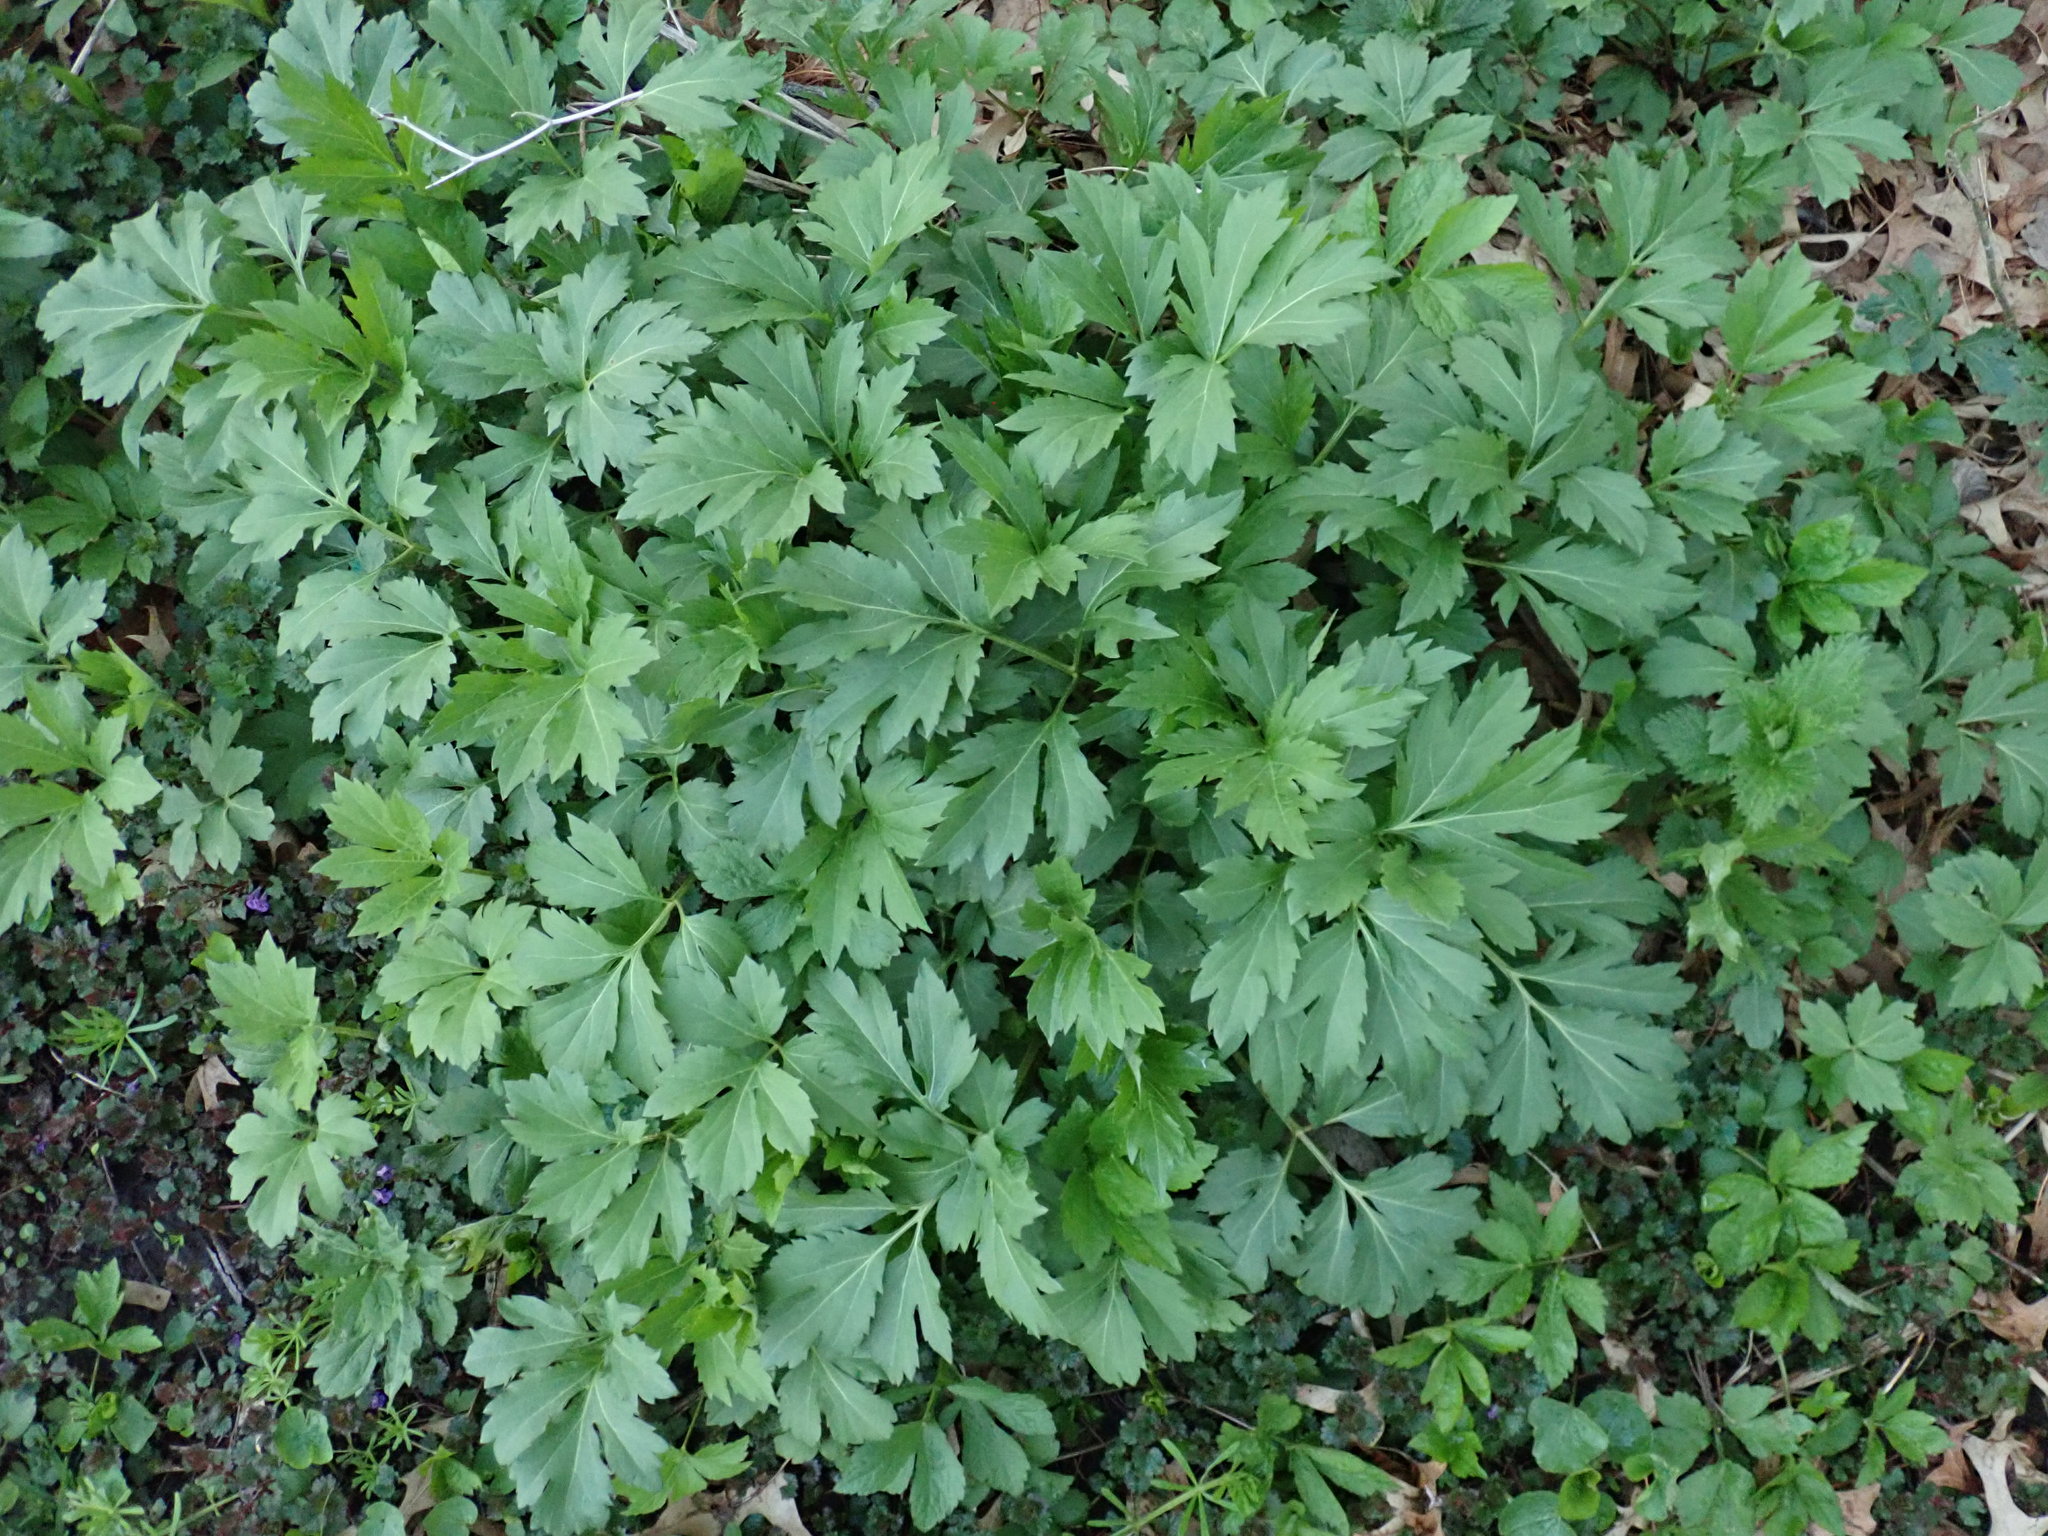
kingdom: Plantae
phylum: Tracheophyta
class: Magnoliopsida
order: Asterales
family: Asteraceae
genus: Rudbeckia
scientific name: Rudbeckia laciniata
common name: Coneflower
